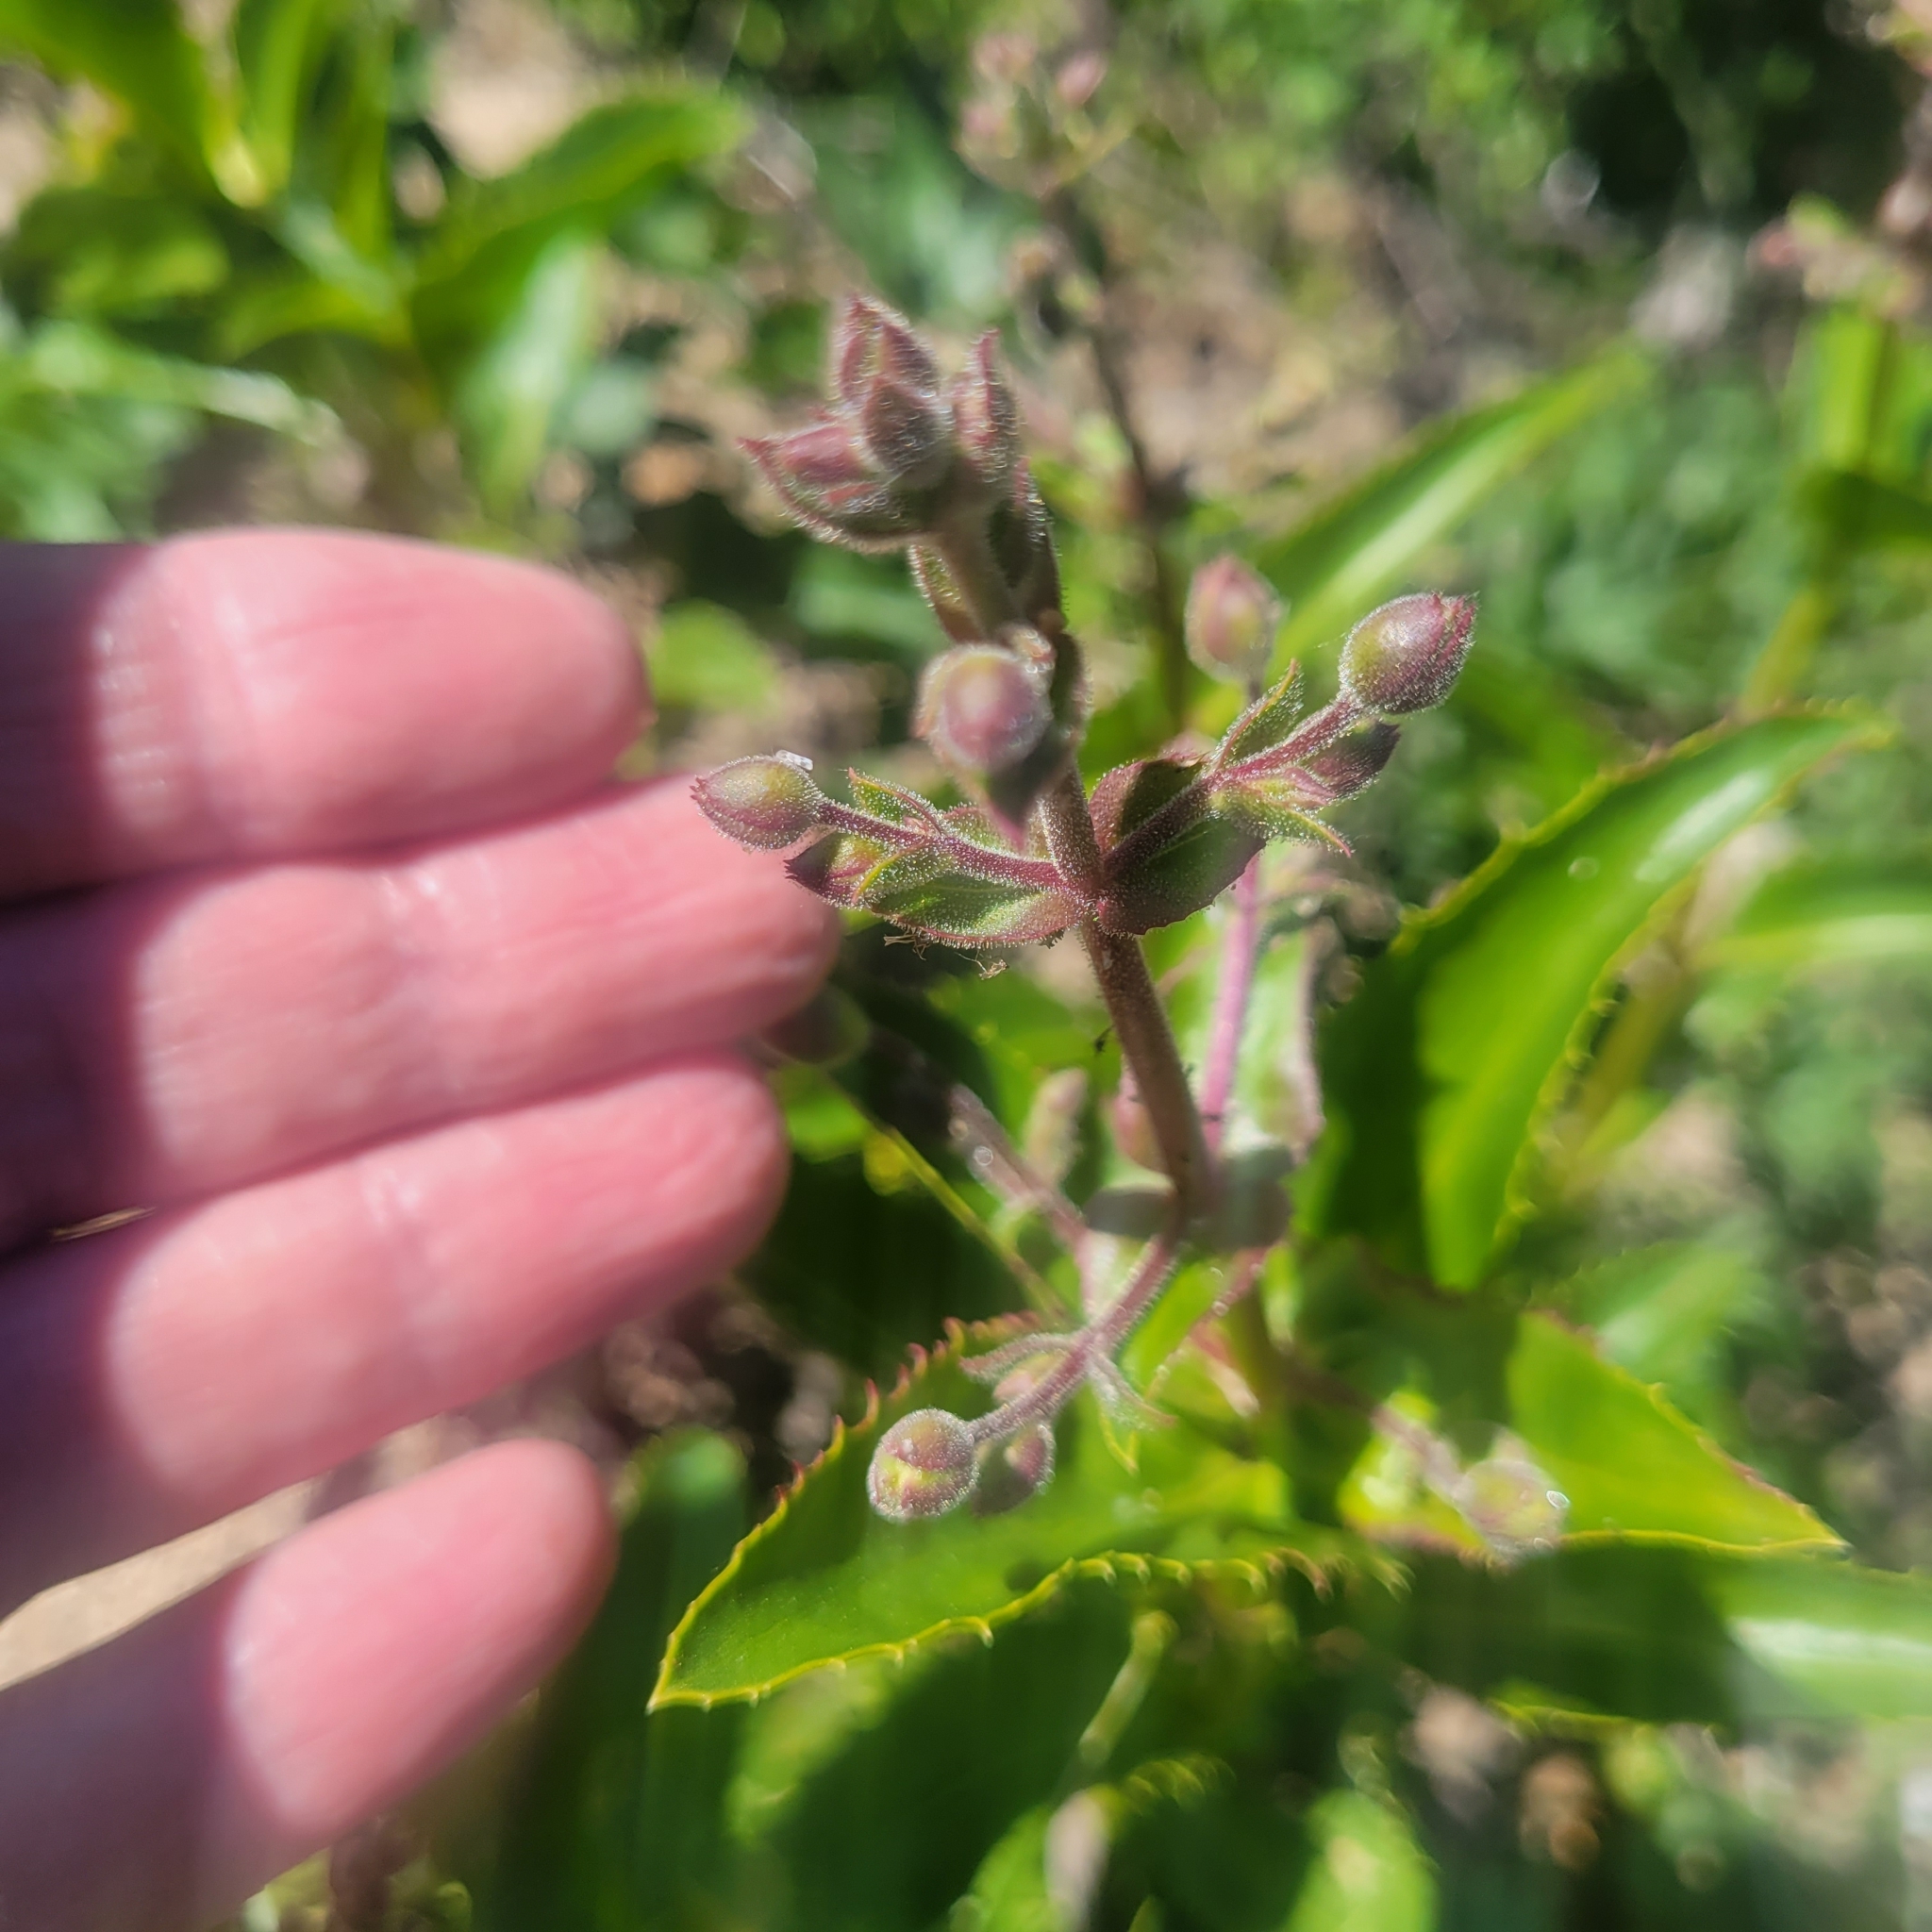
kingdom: Plantae
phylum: Tracheophyta
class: Magnoliopsida
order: Lamiales
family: Plantaginaceae
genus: Penstemon
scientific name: Penstemon grinnellii
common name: Grinnell's beardtongue
